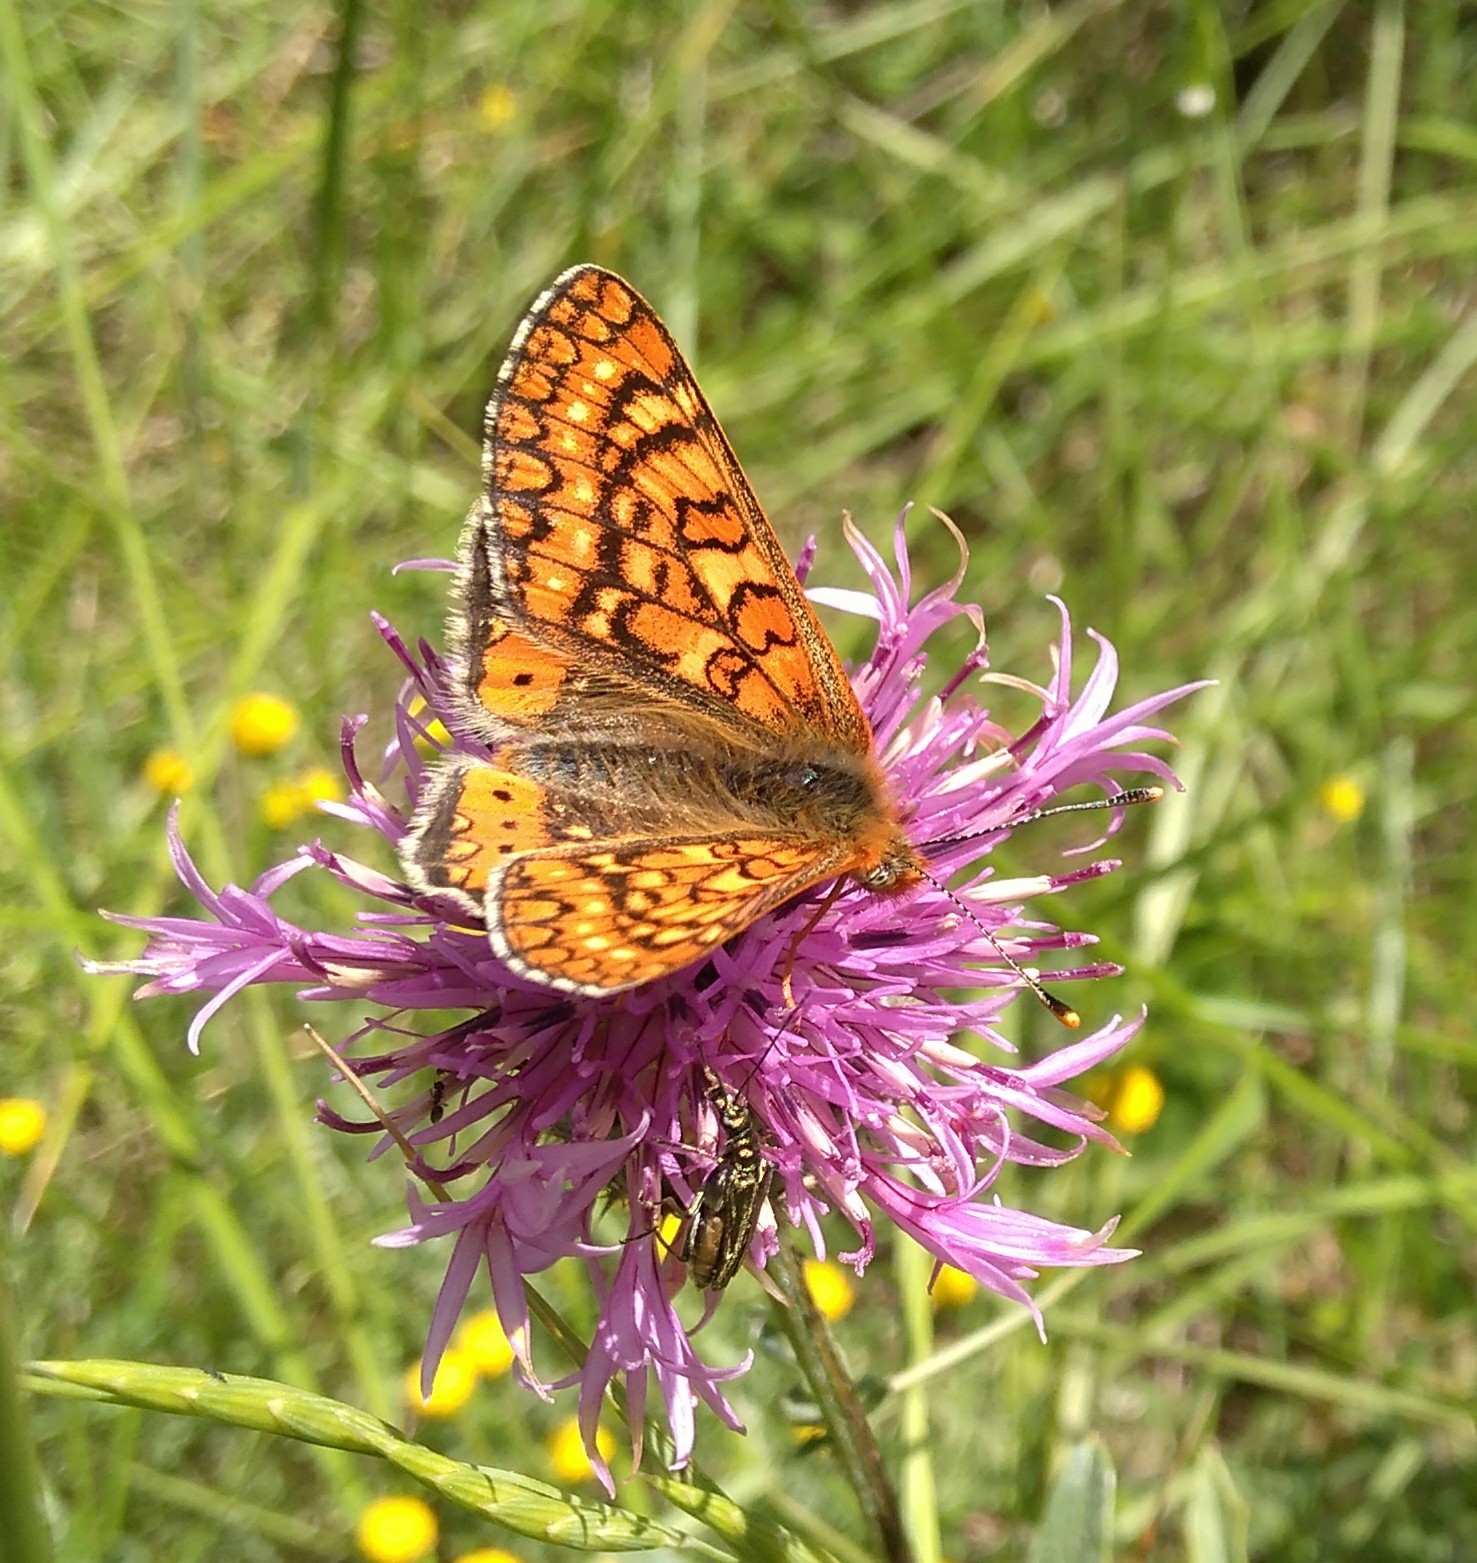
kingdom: Animalia
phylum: Arthropoda
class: Insecta
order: Lepidoptera
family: Nymphalidae
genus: Euphydryas
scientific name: Euphydryas aurinia
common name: Marsh fritillary
